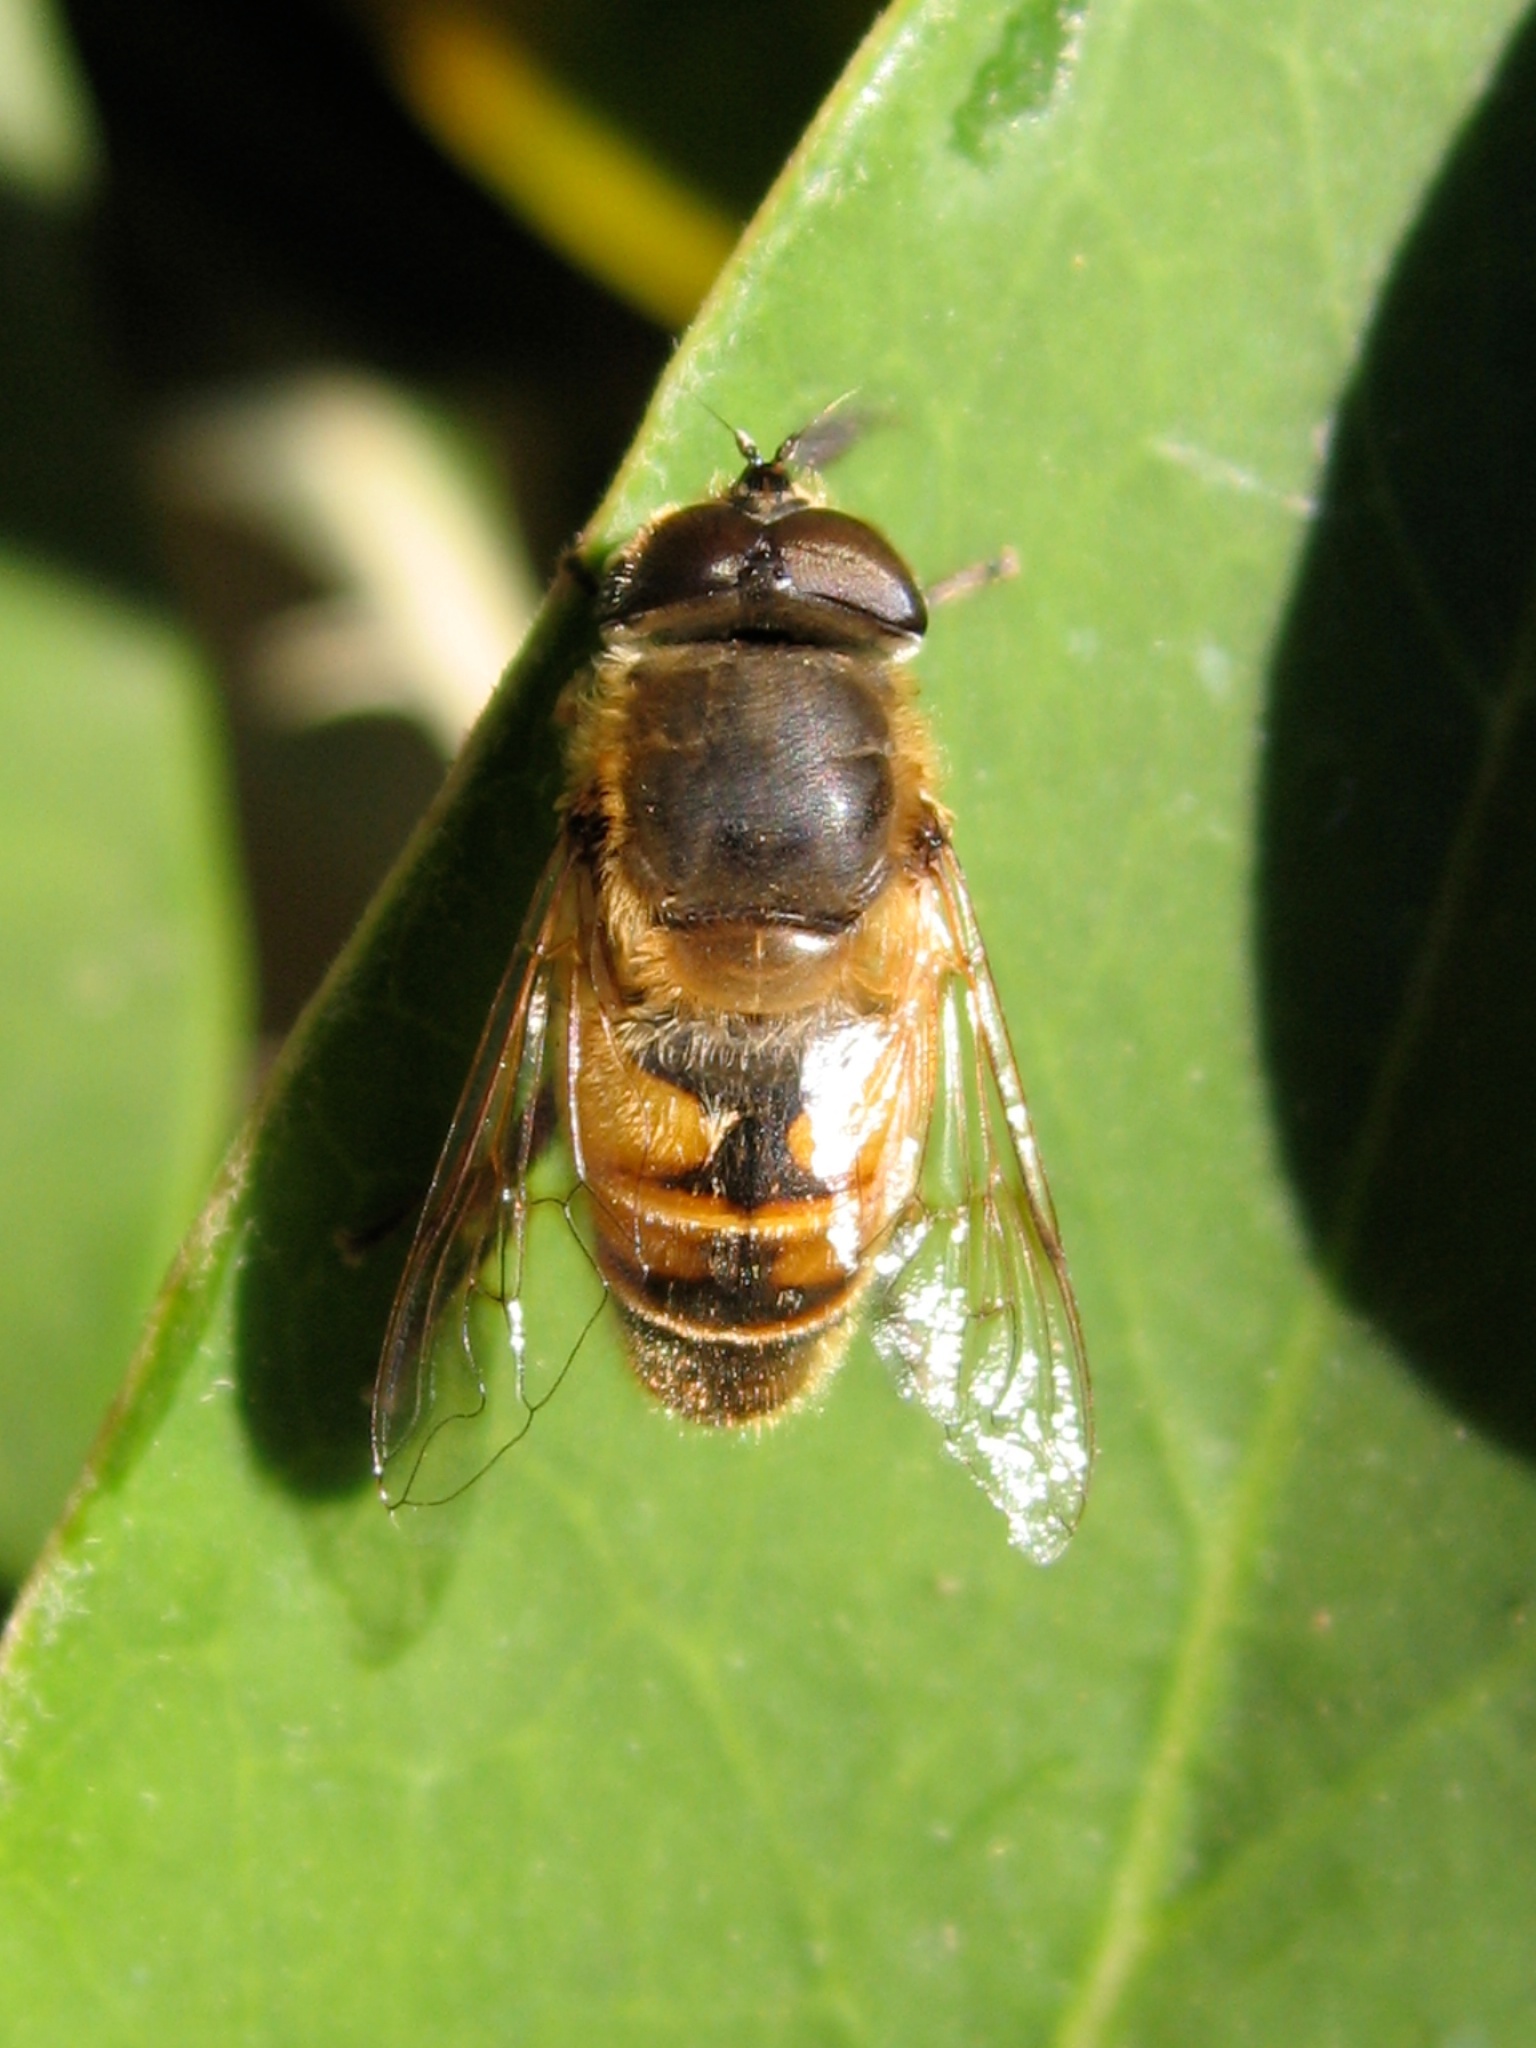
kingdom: Animalia
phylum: Arthropoda
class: Insecta
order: Diptera
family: Syrphidae
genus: Eristalis
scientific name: Eristalis tenax
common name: Drone fly
